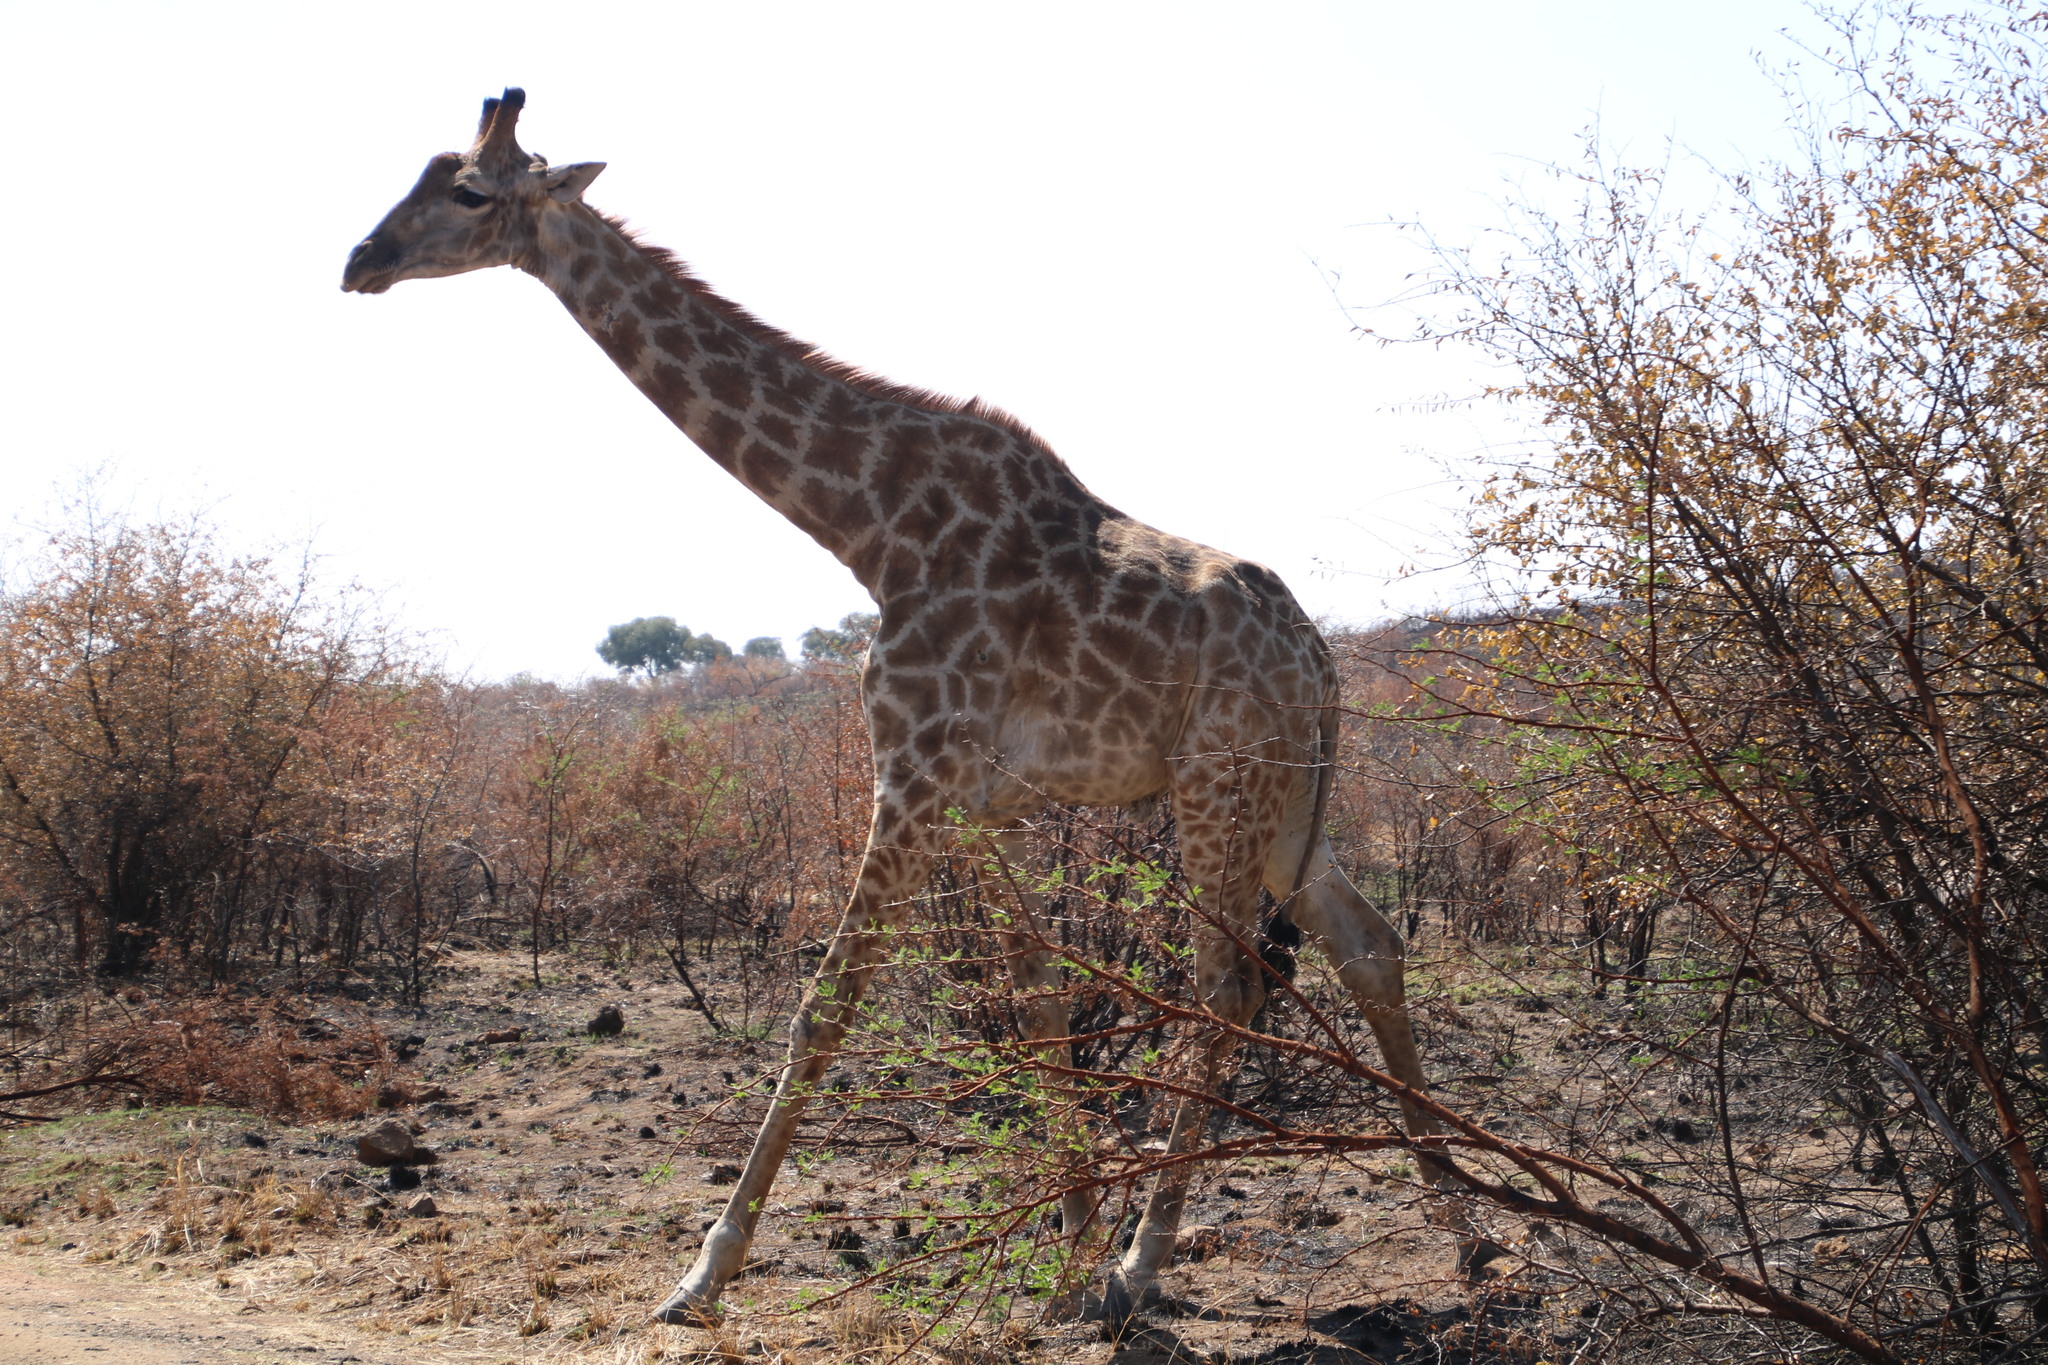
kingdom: Animalia
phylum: Chordata
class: Mammalia
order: Artiodactyla
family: Giraffidae
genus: Giraffa
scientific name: Giraffa giraffa
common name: Southern giraffe
